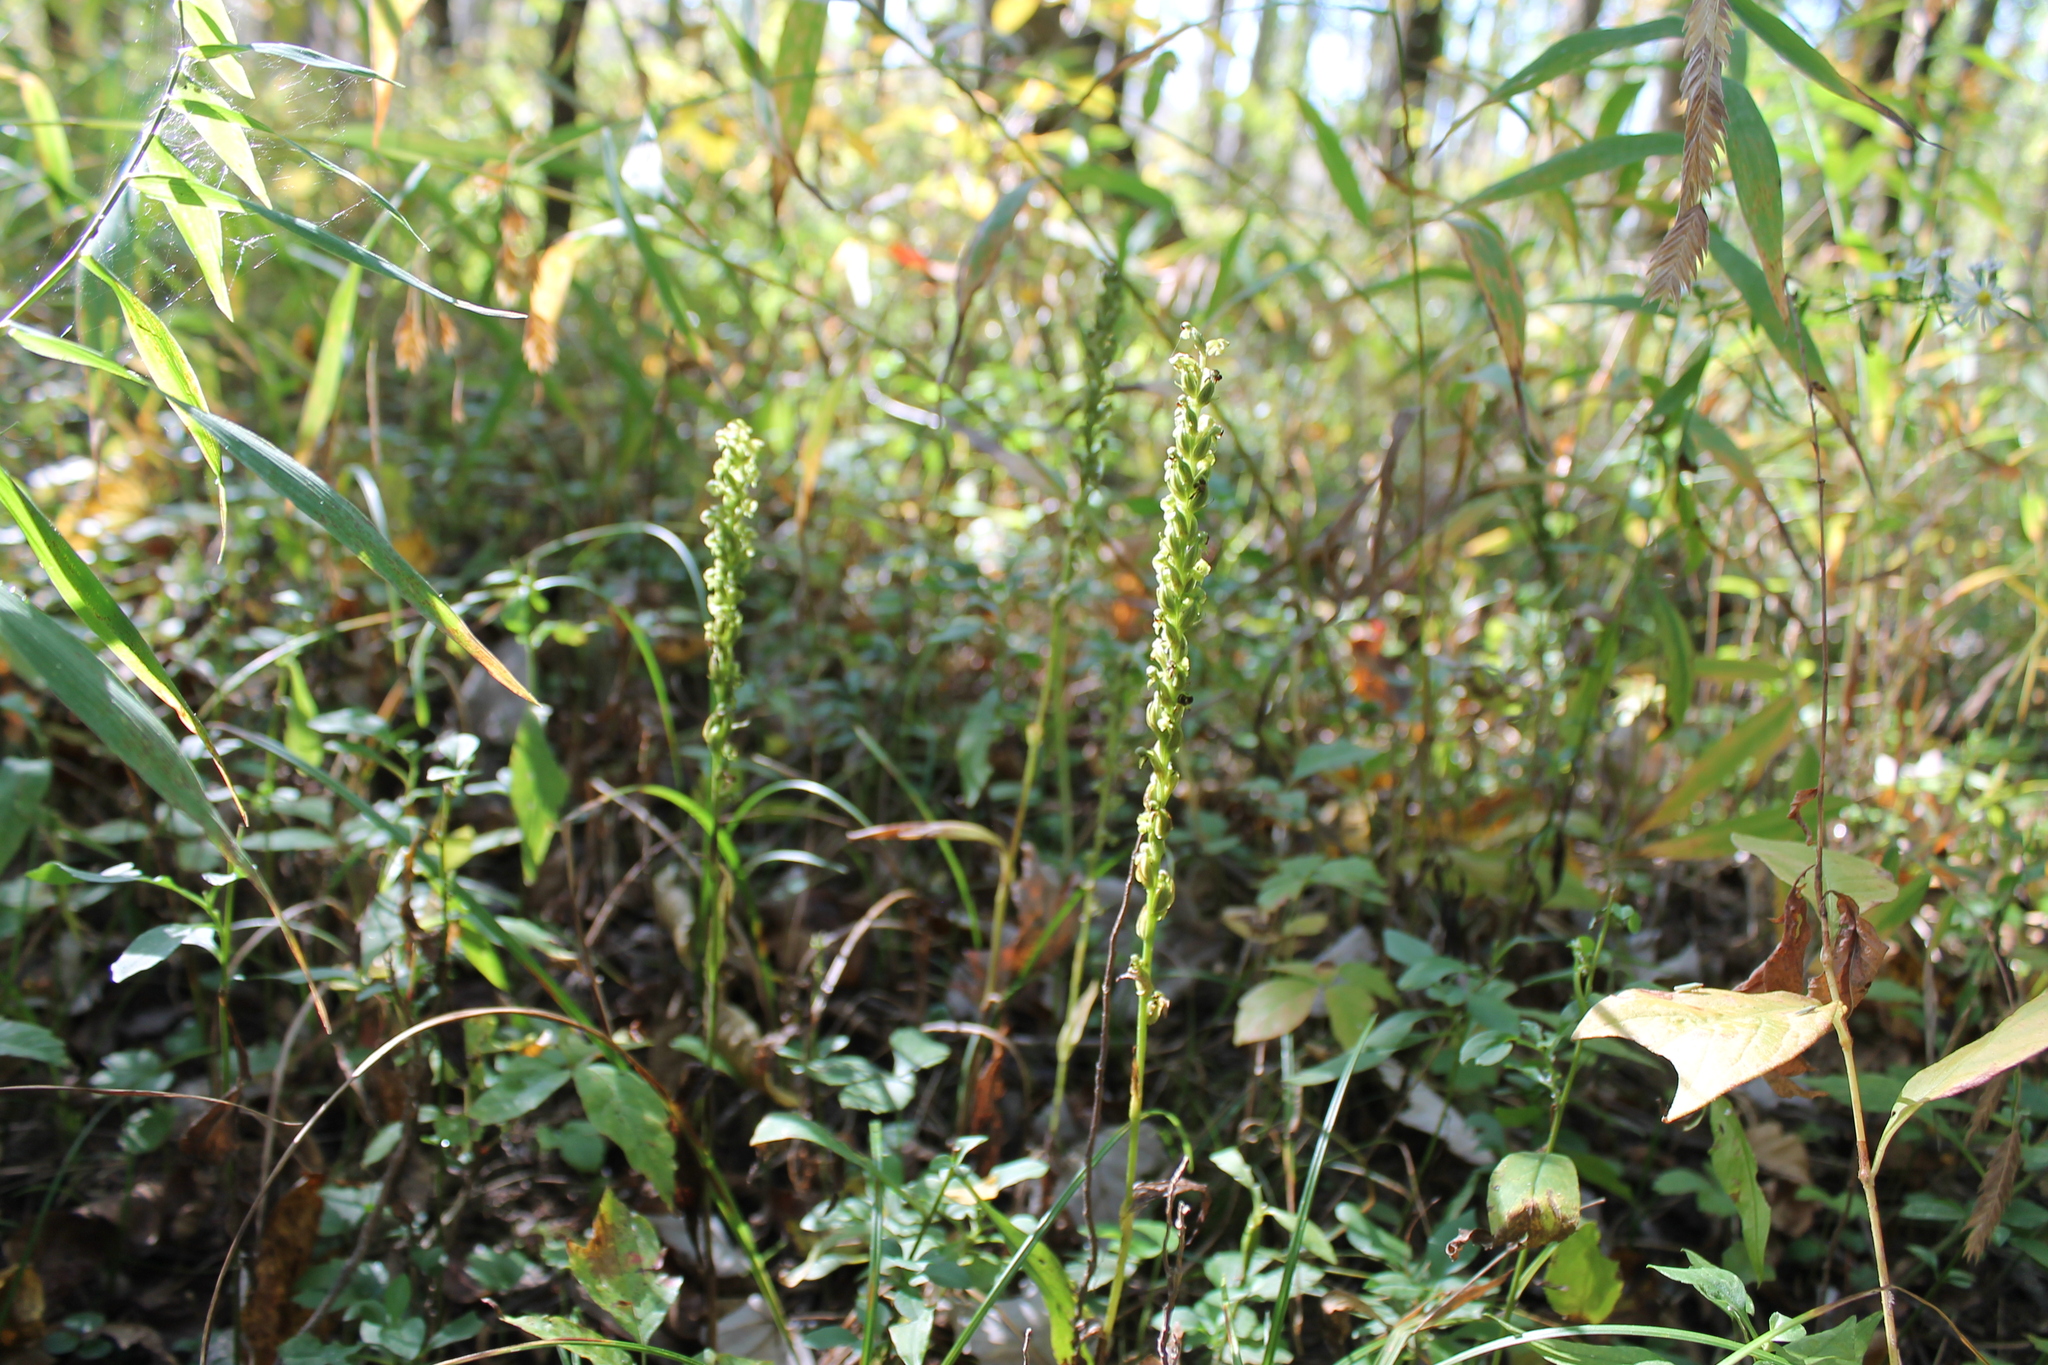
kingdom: Plantae
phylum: Tracheophyta
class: Liliopsida
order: Asparagales
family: Orchidaceae
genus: Platanthera
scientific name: Platanthera flava
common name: Gypsy-spikes
